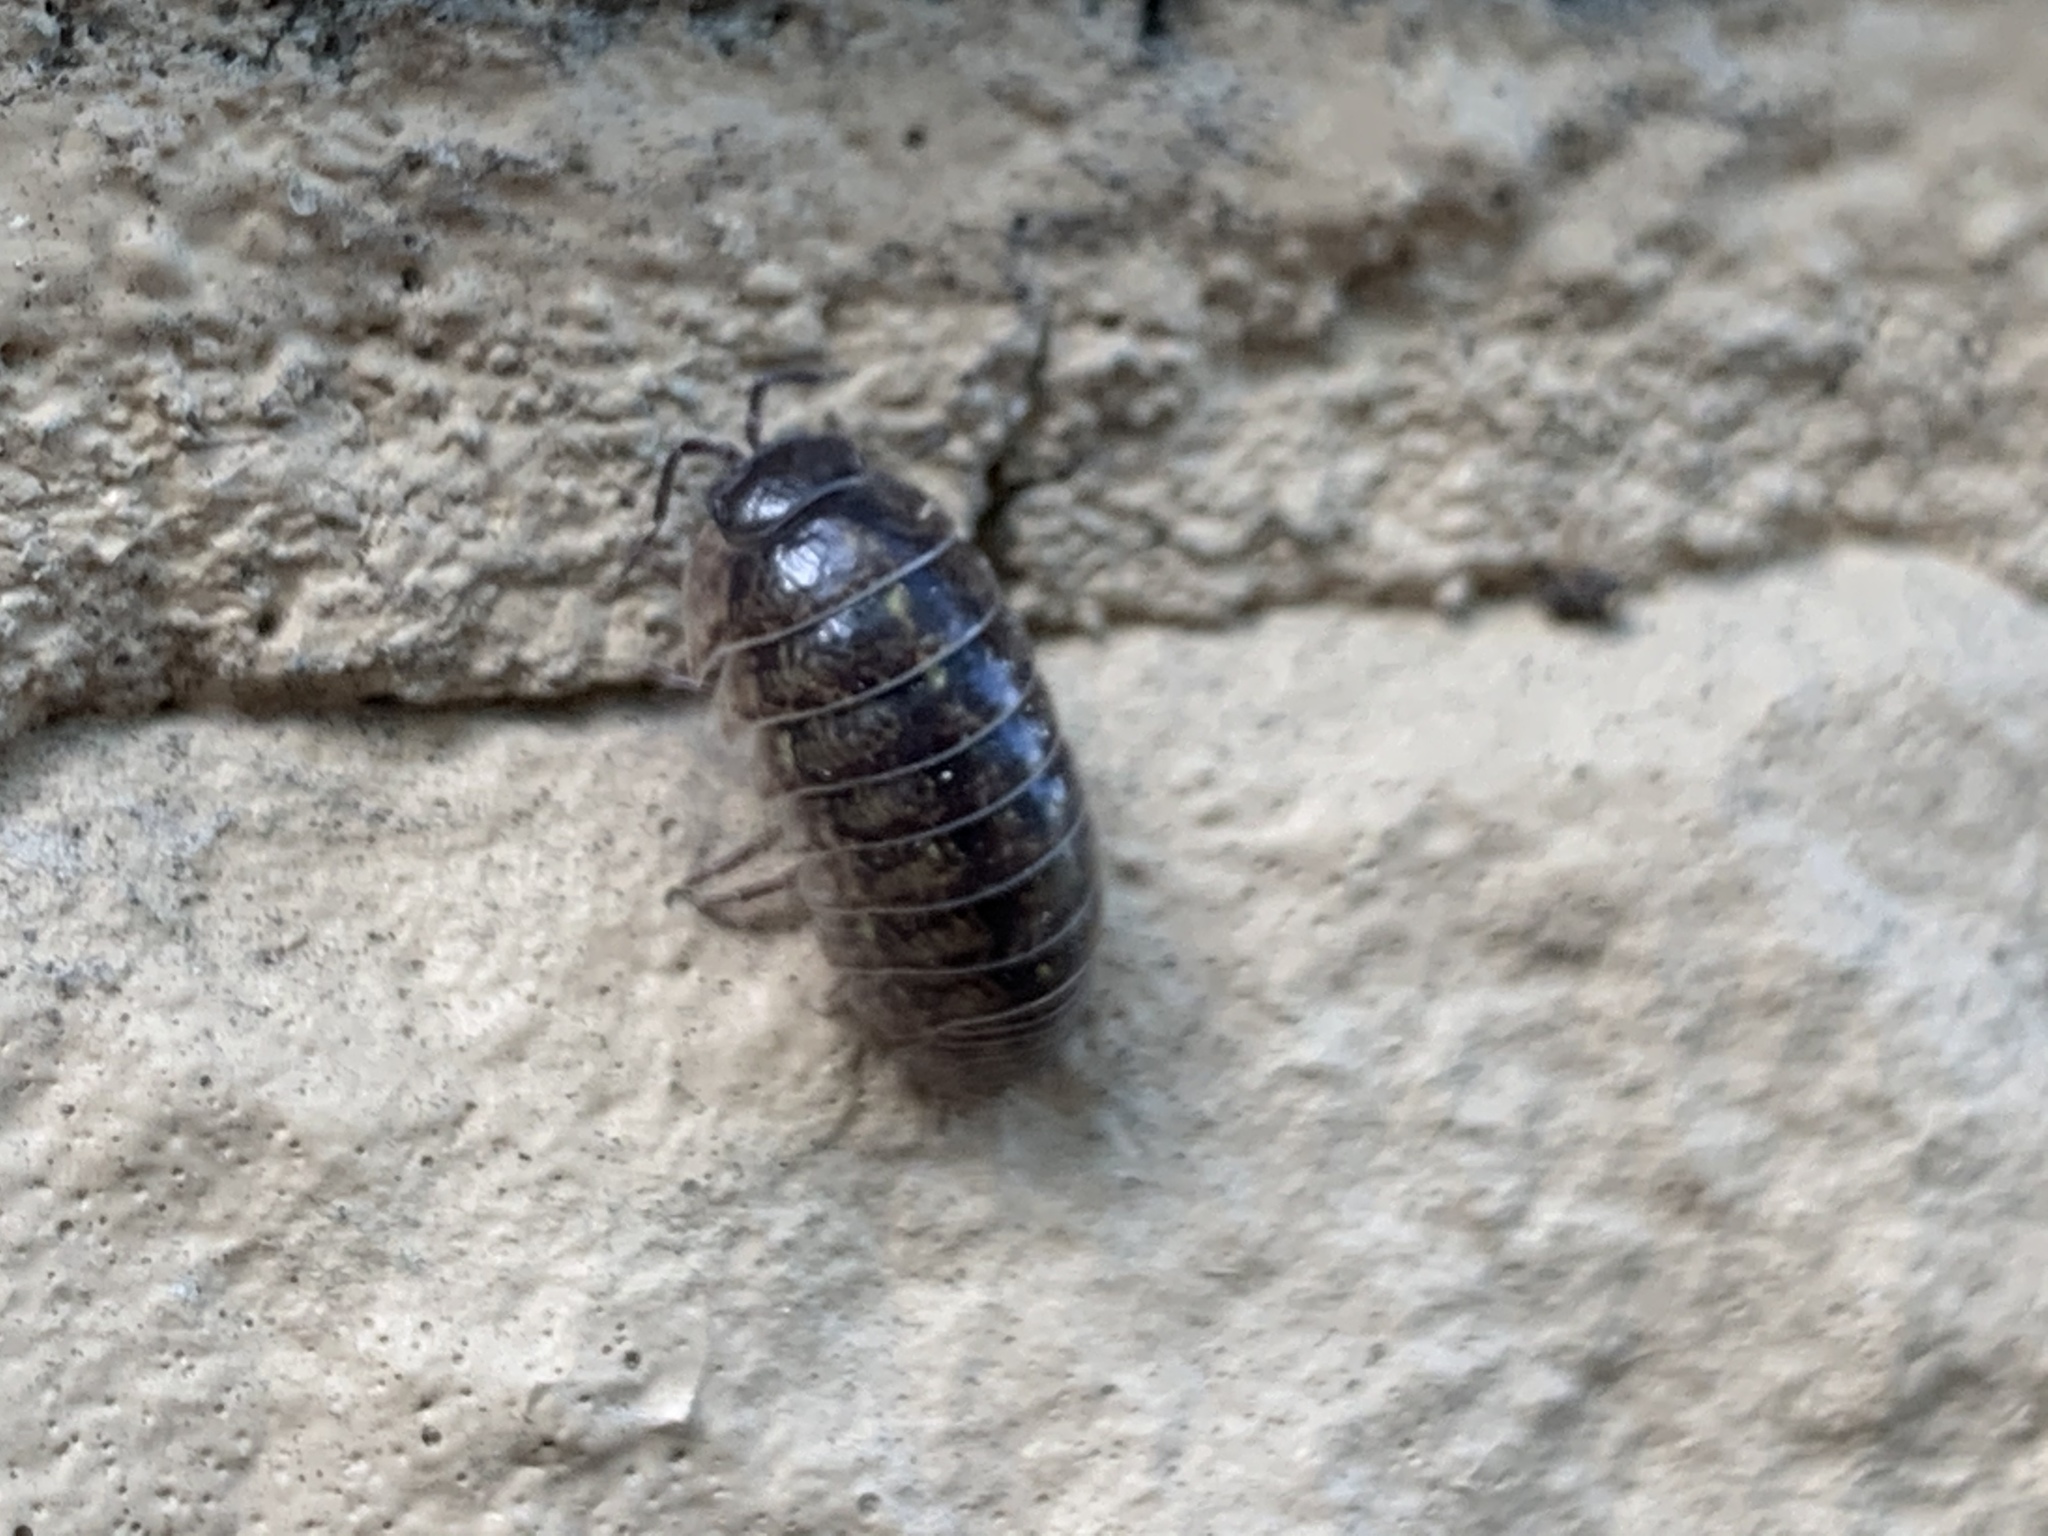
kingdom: Animalia
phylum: Arthropoda
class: Malacostraca
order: Isopoda
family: Armadillidiidae
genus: Armadillidium
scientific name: Armadillidium vulgare
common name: Common pill woodlouse
